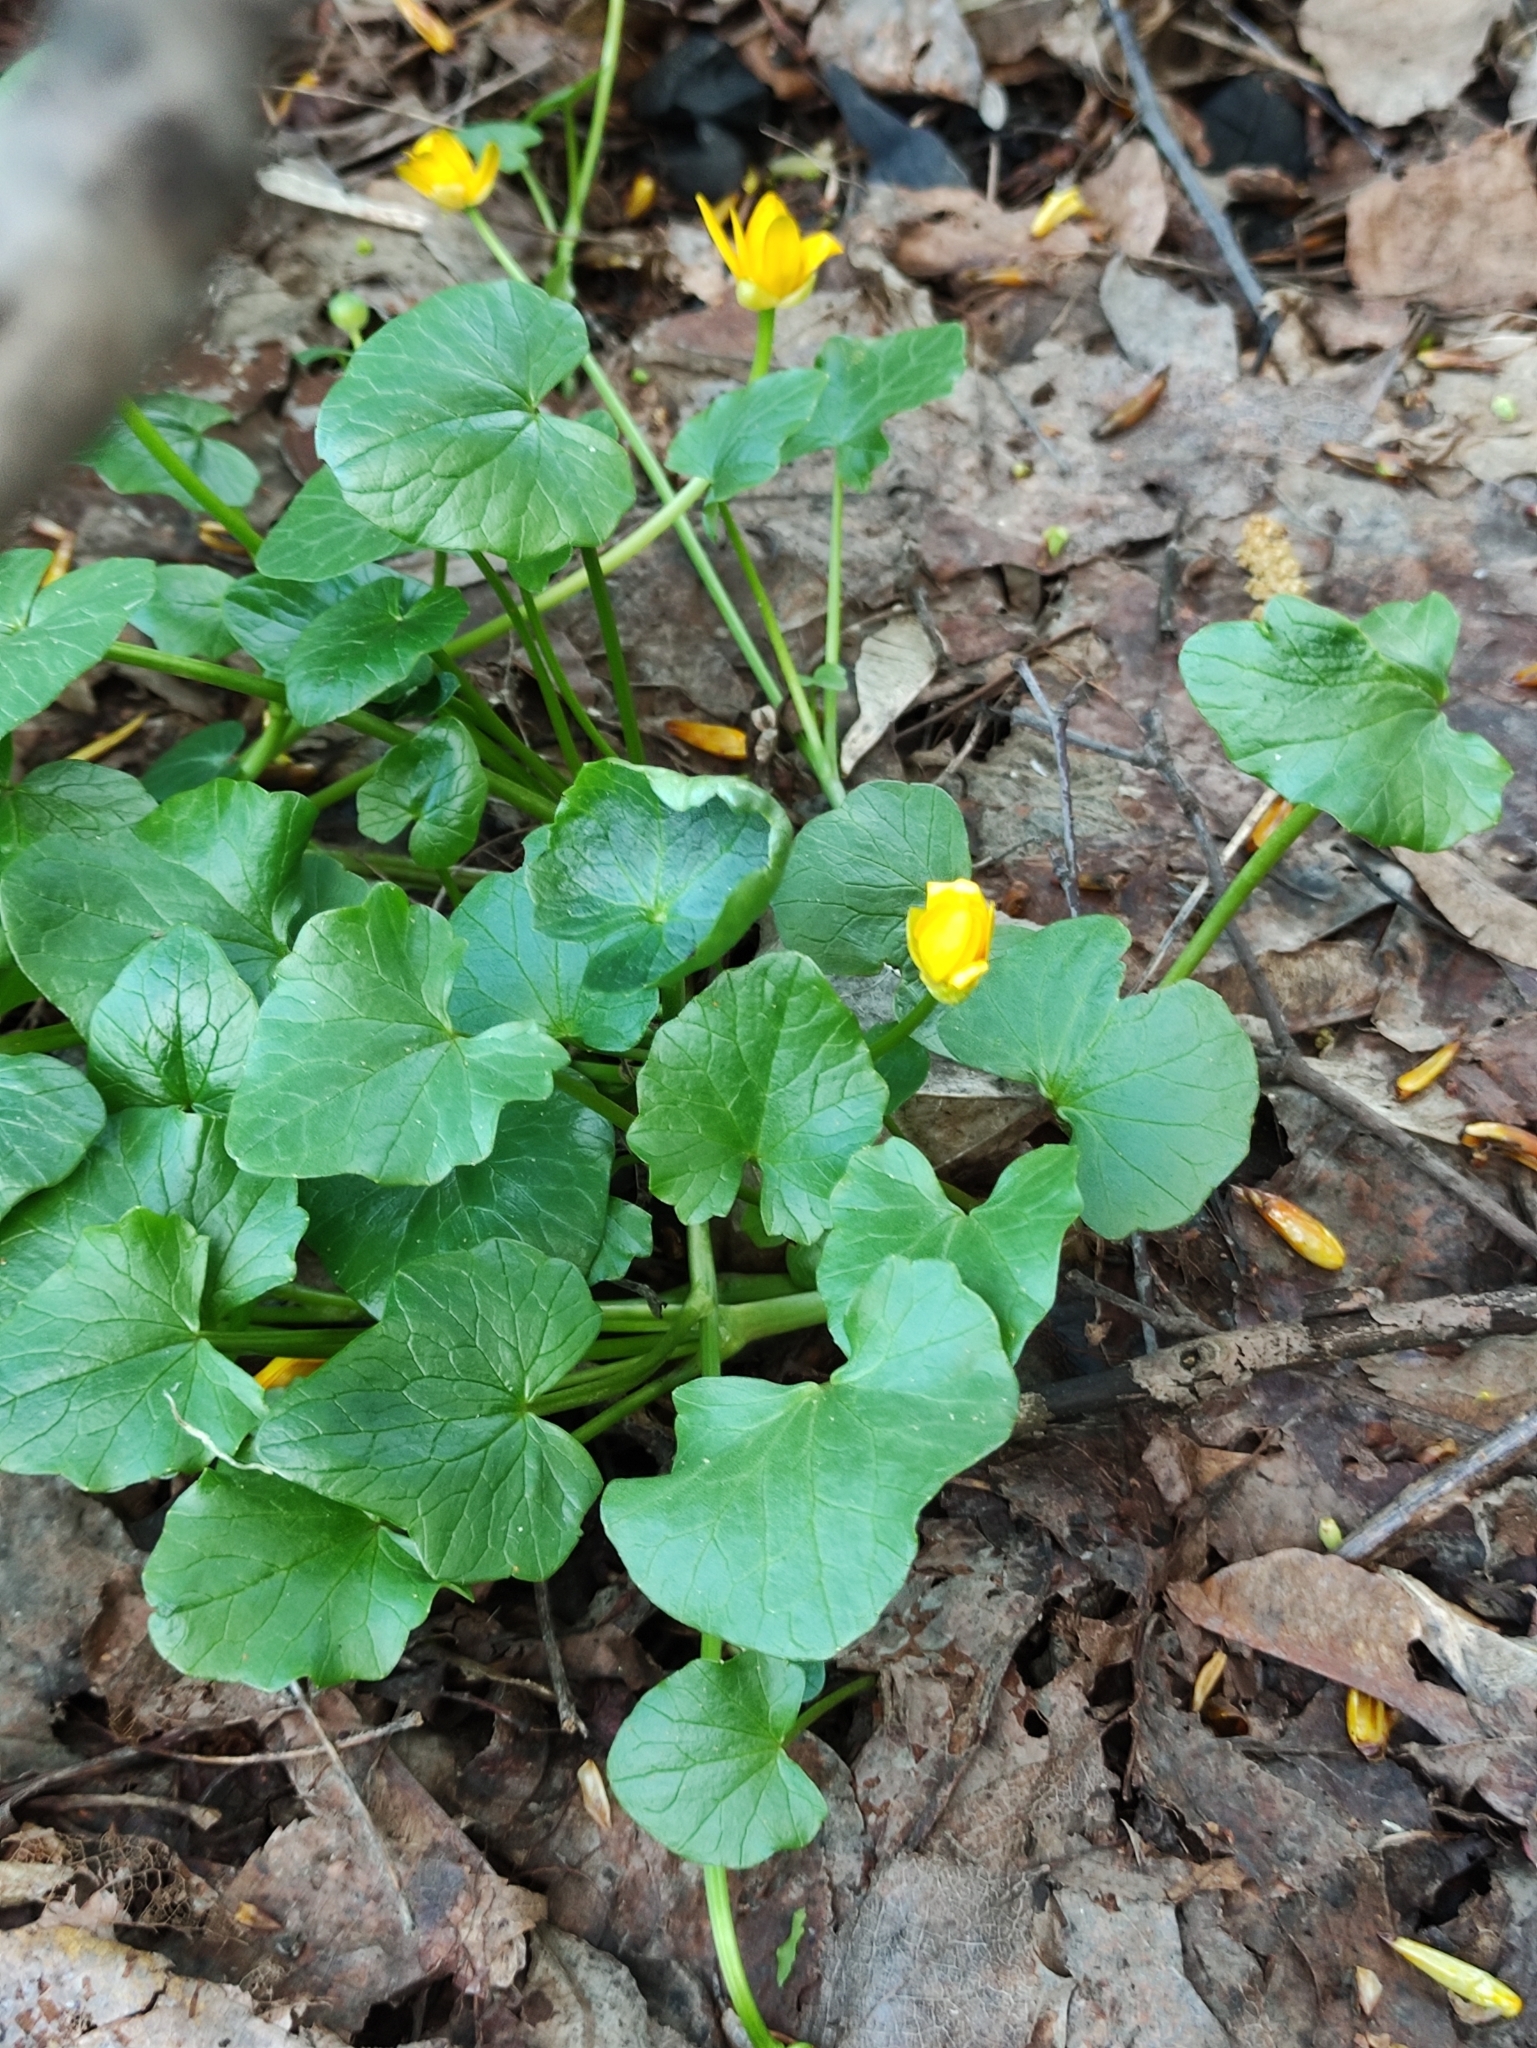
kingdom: Plantae
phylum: Tracheophyta
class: Magnoliopsida
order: Ranunculales
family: Ranunculaceae
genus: Ficaria
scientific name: Ficaria verna
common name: Lesser celandine
